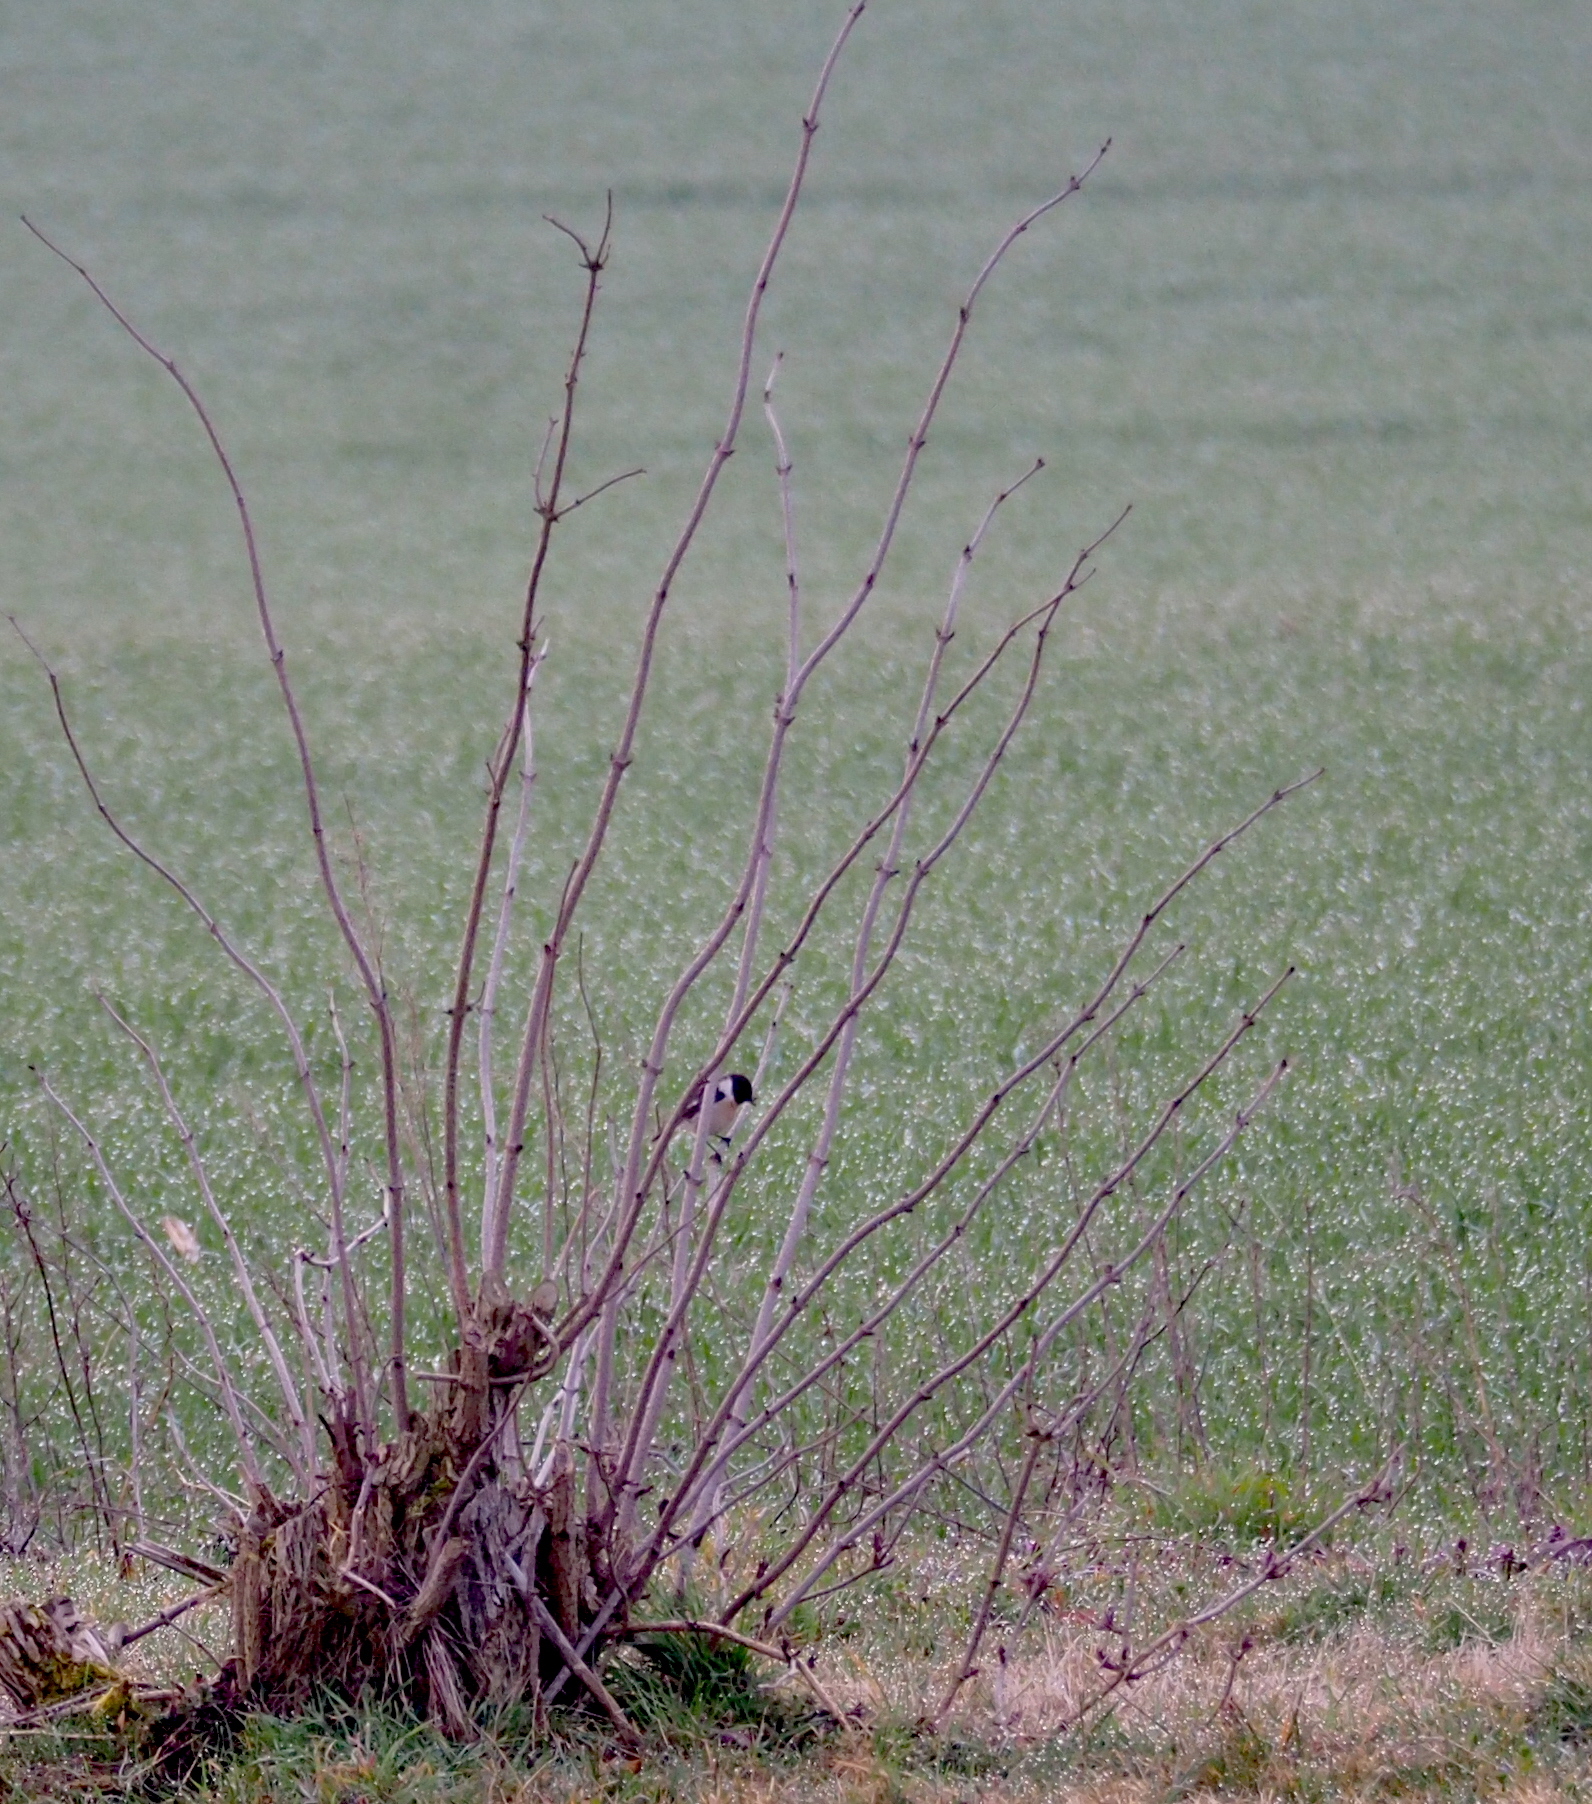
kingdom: Animalia
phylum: Chordata
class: Aves
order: Passeriformes
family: Muscicapidae
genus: Saxicola
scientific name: Saxicola rubicola
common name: European stonechat
